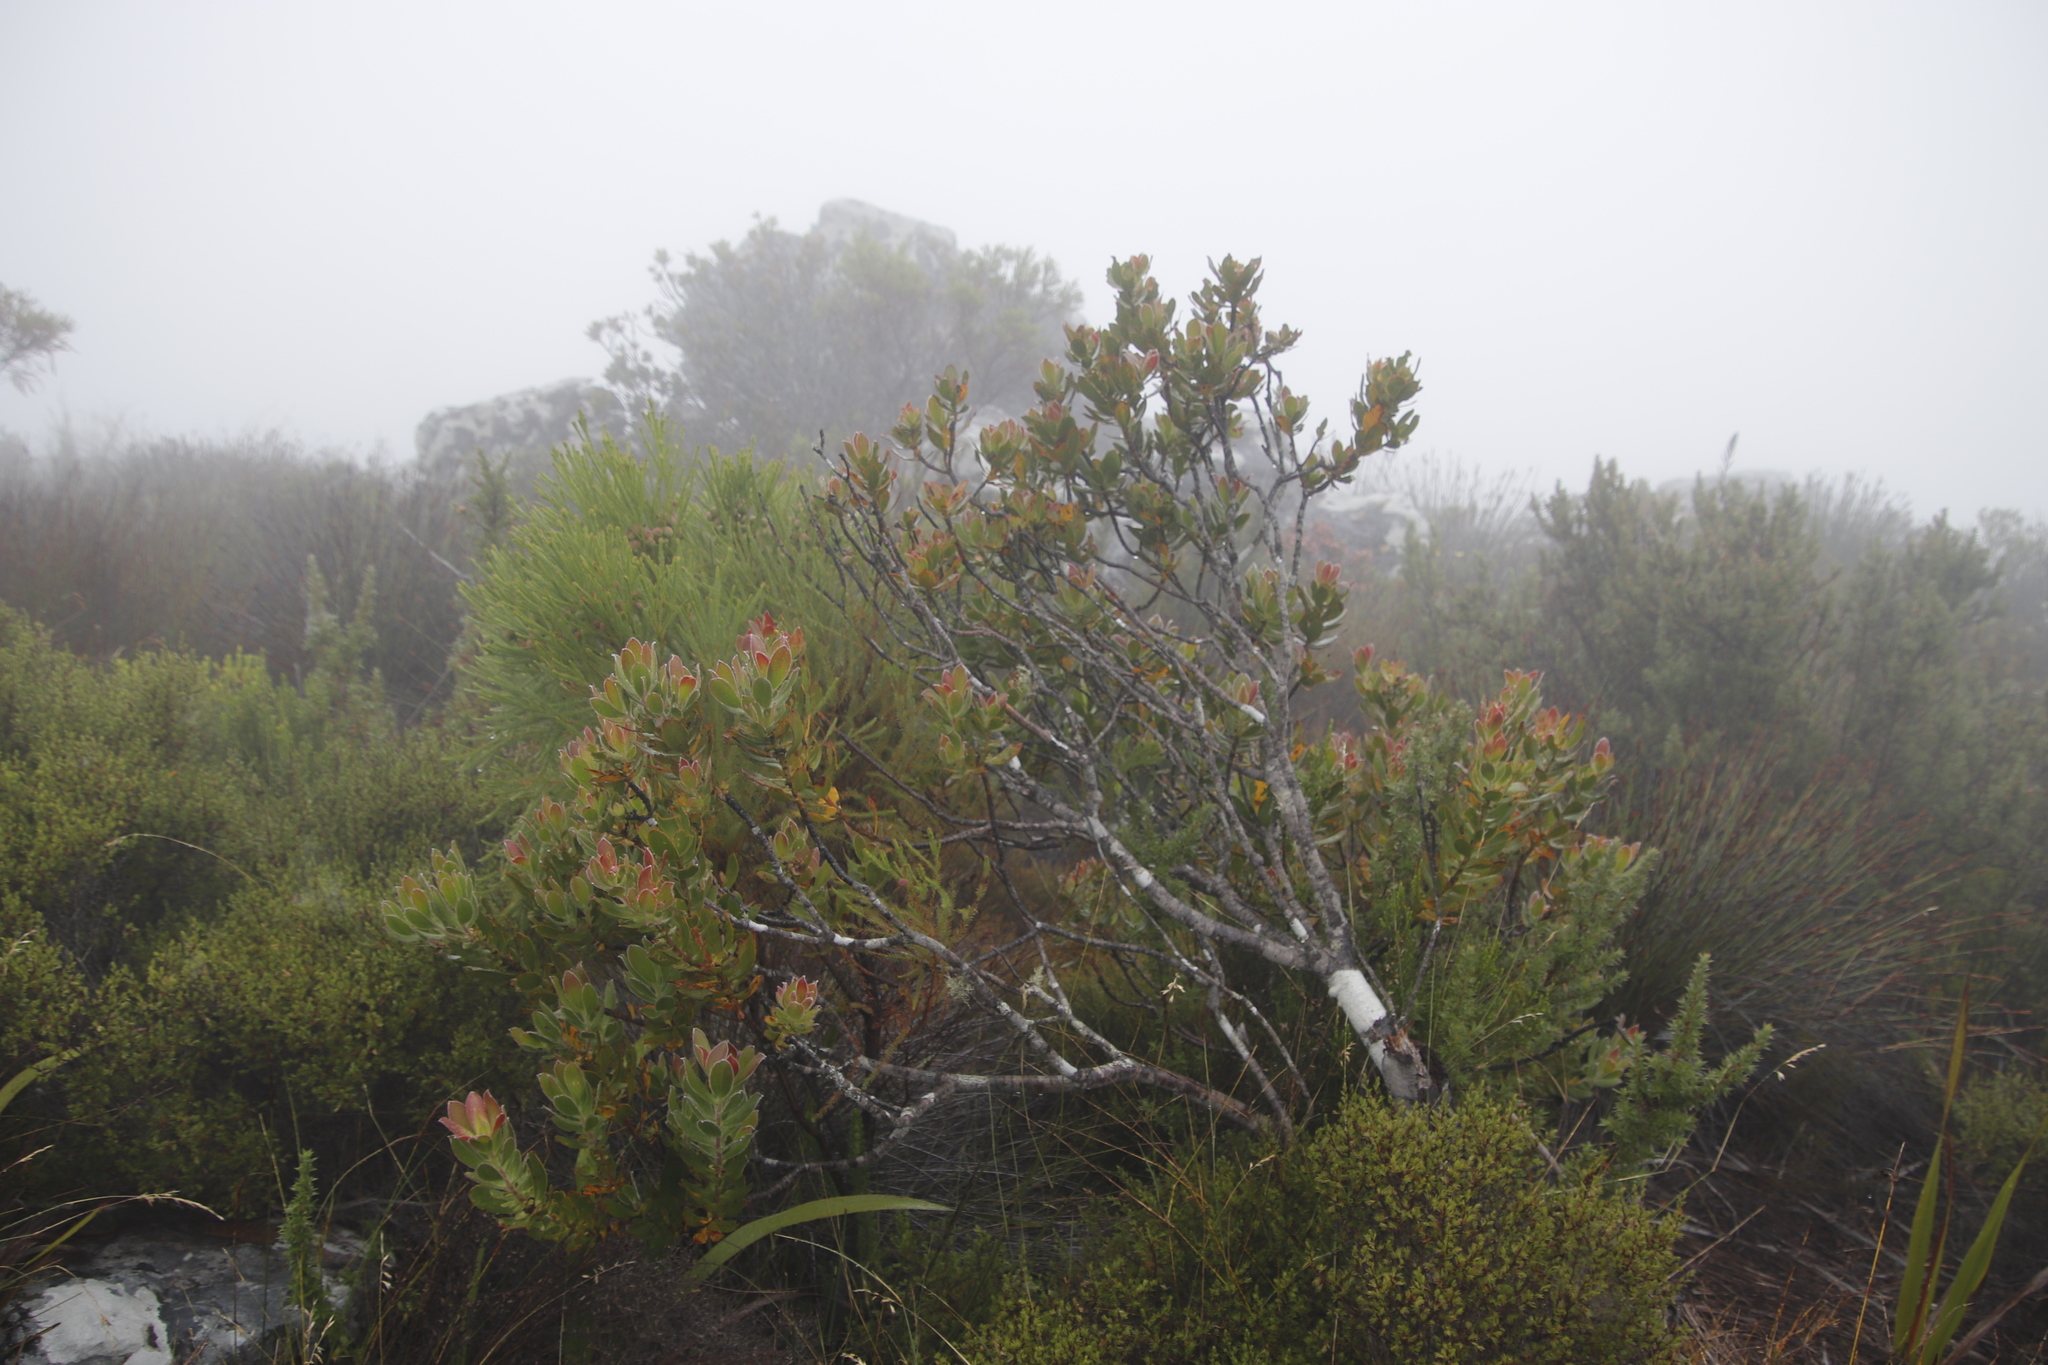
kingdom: Plantae
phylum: Tracheophyta
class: Magnoliopsida
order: Proteales
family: Proteaceae
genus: Leucadendron
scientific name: Leucadendron strobilinum
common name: Mountain rose
